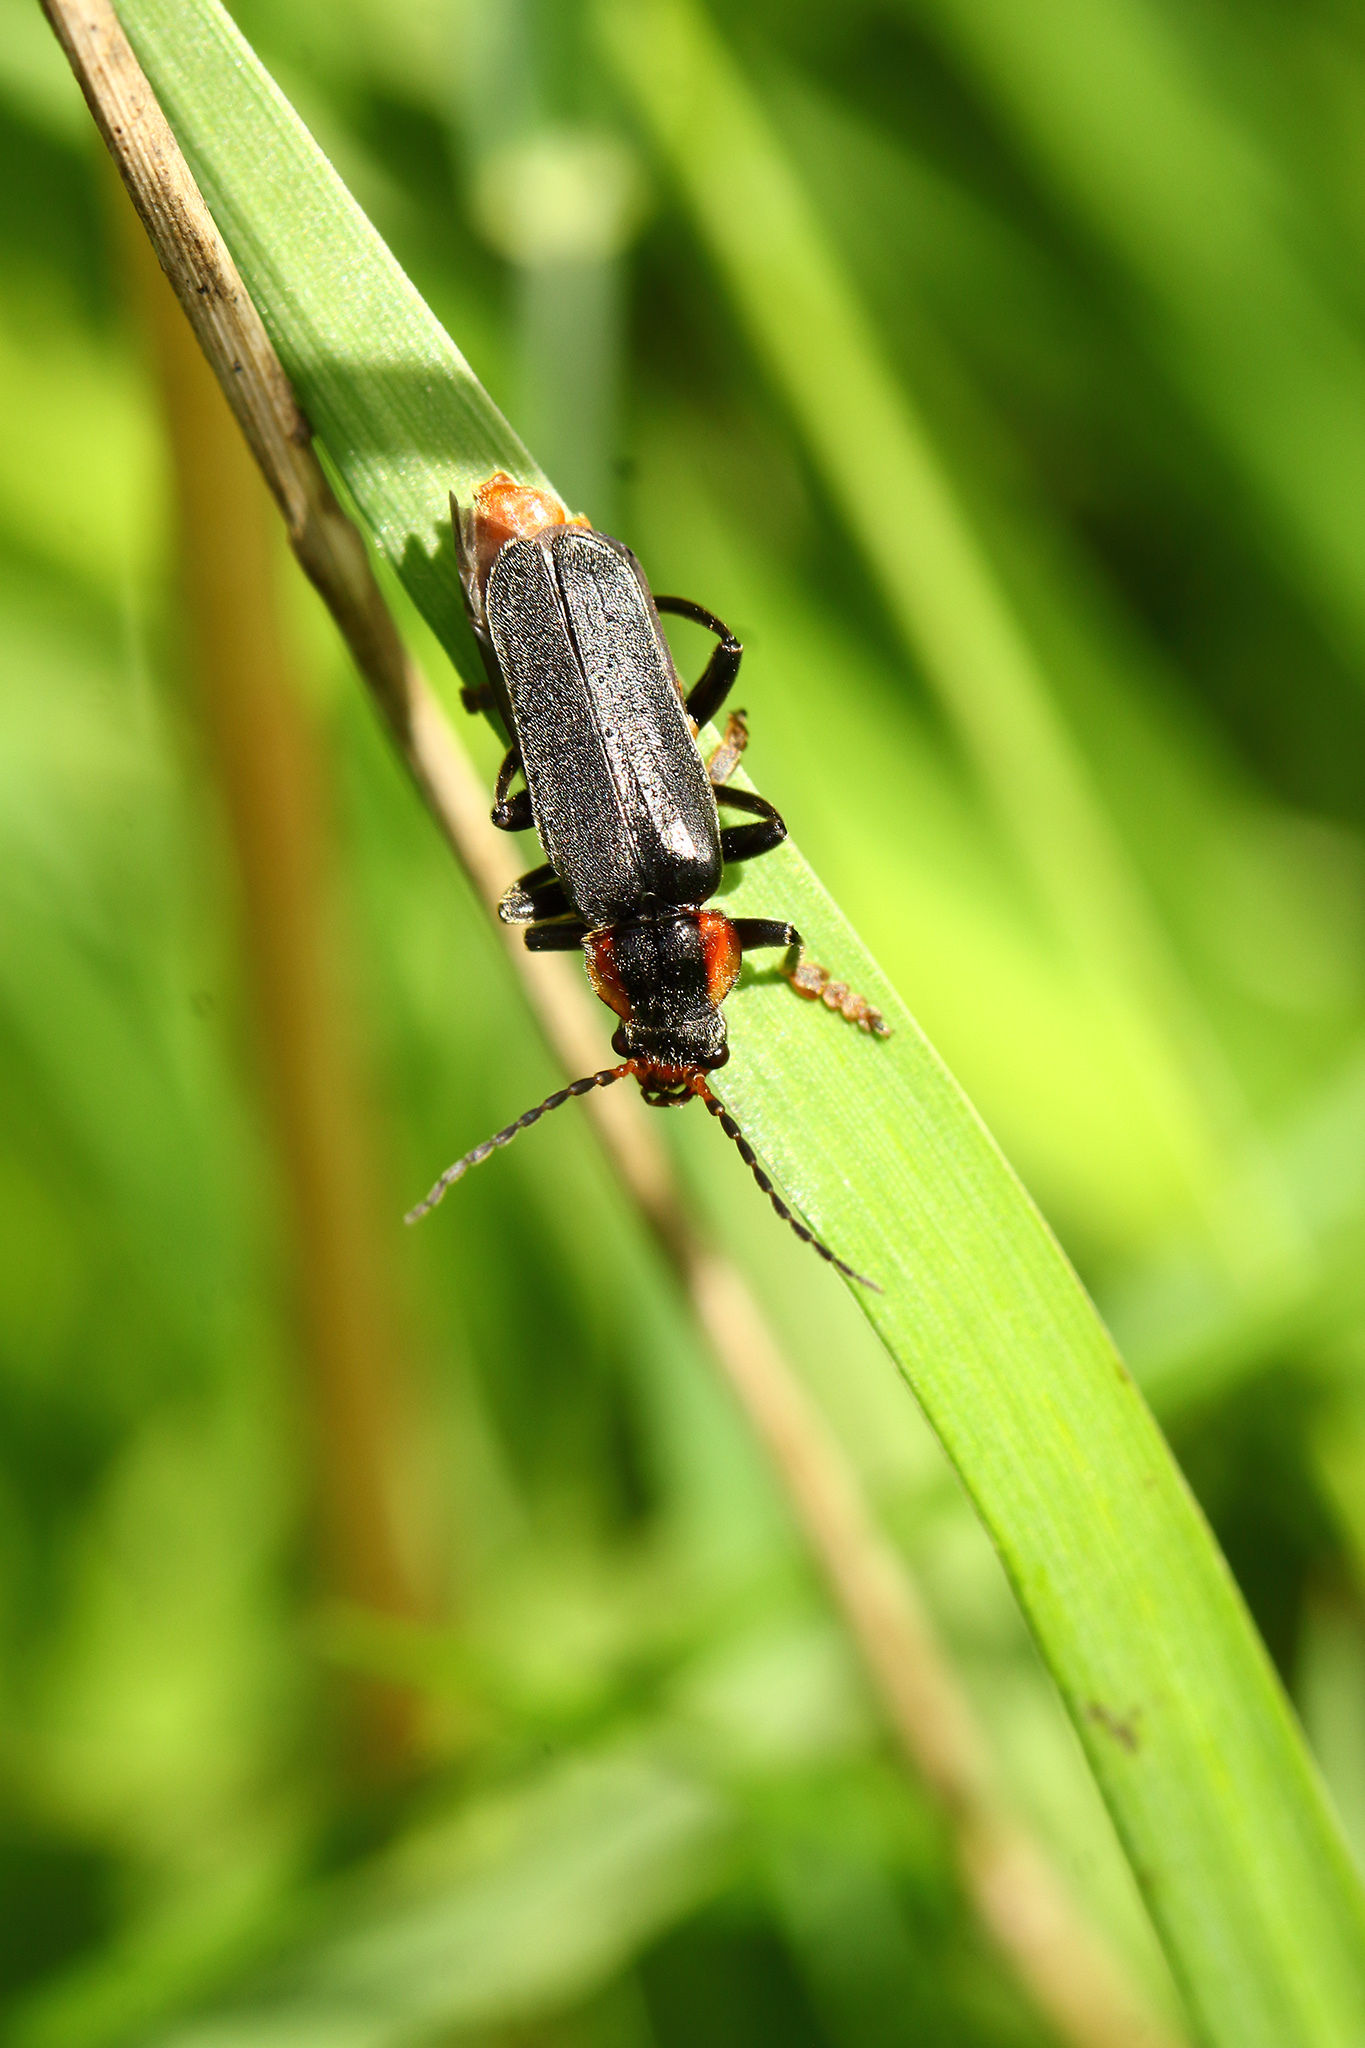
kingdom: Animalia
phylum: Arthropoda
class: Insecta
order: Coleoptera
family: Cantharidae
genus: Cantharis
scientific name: Cantharis fusca
